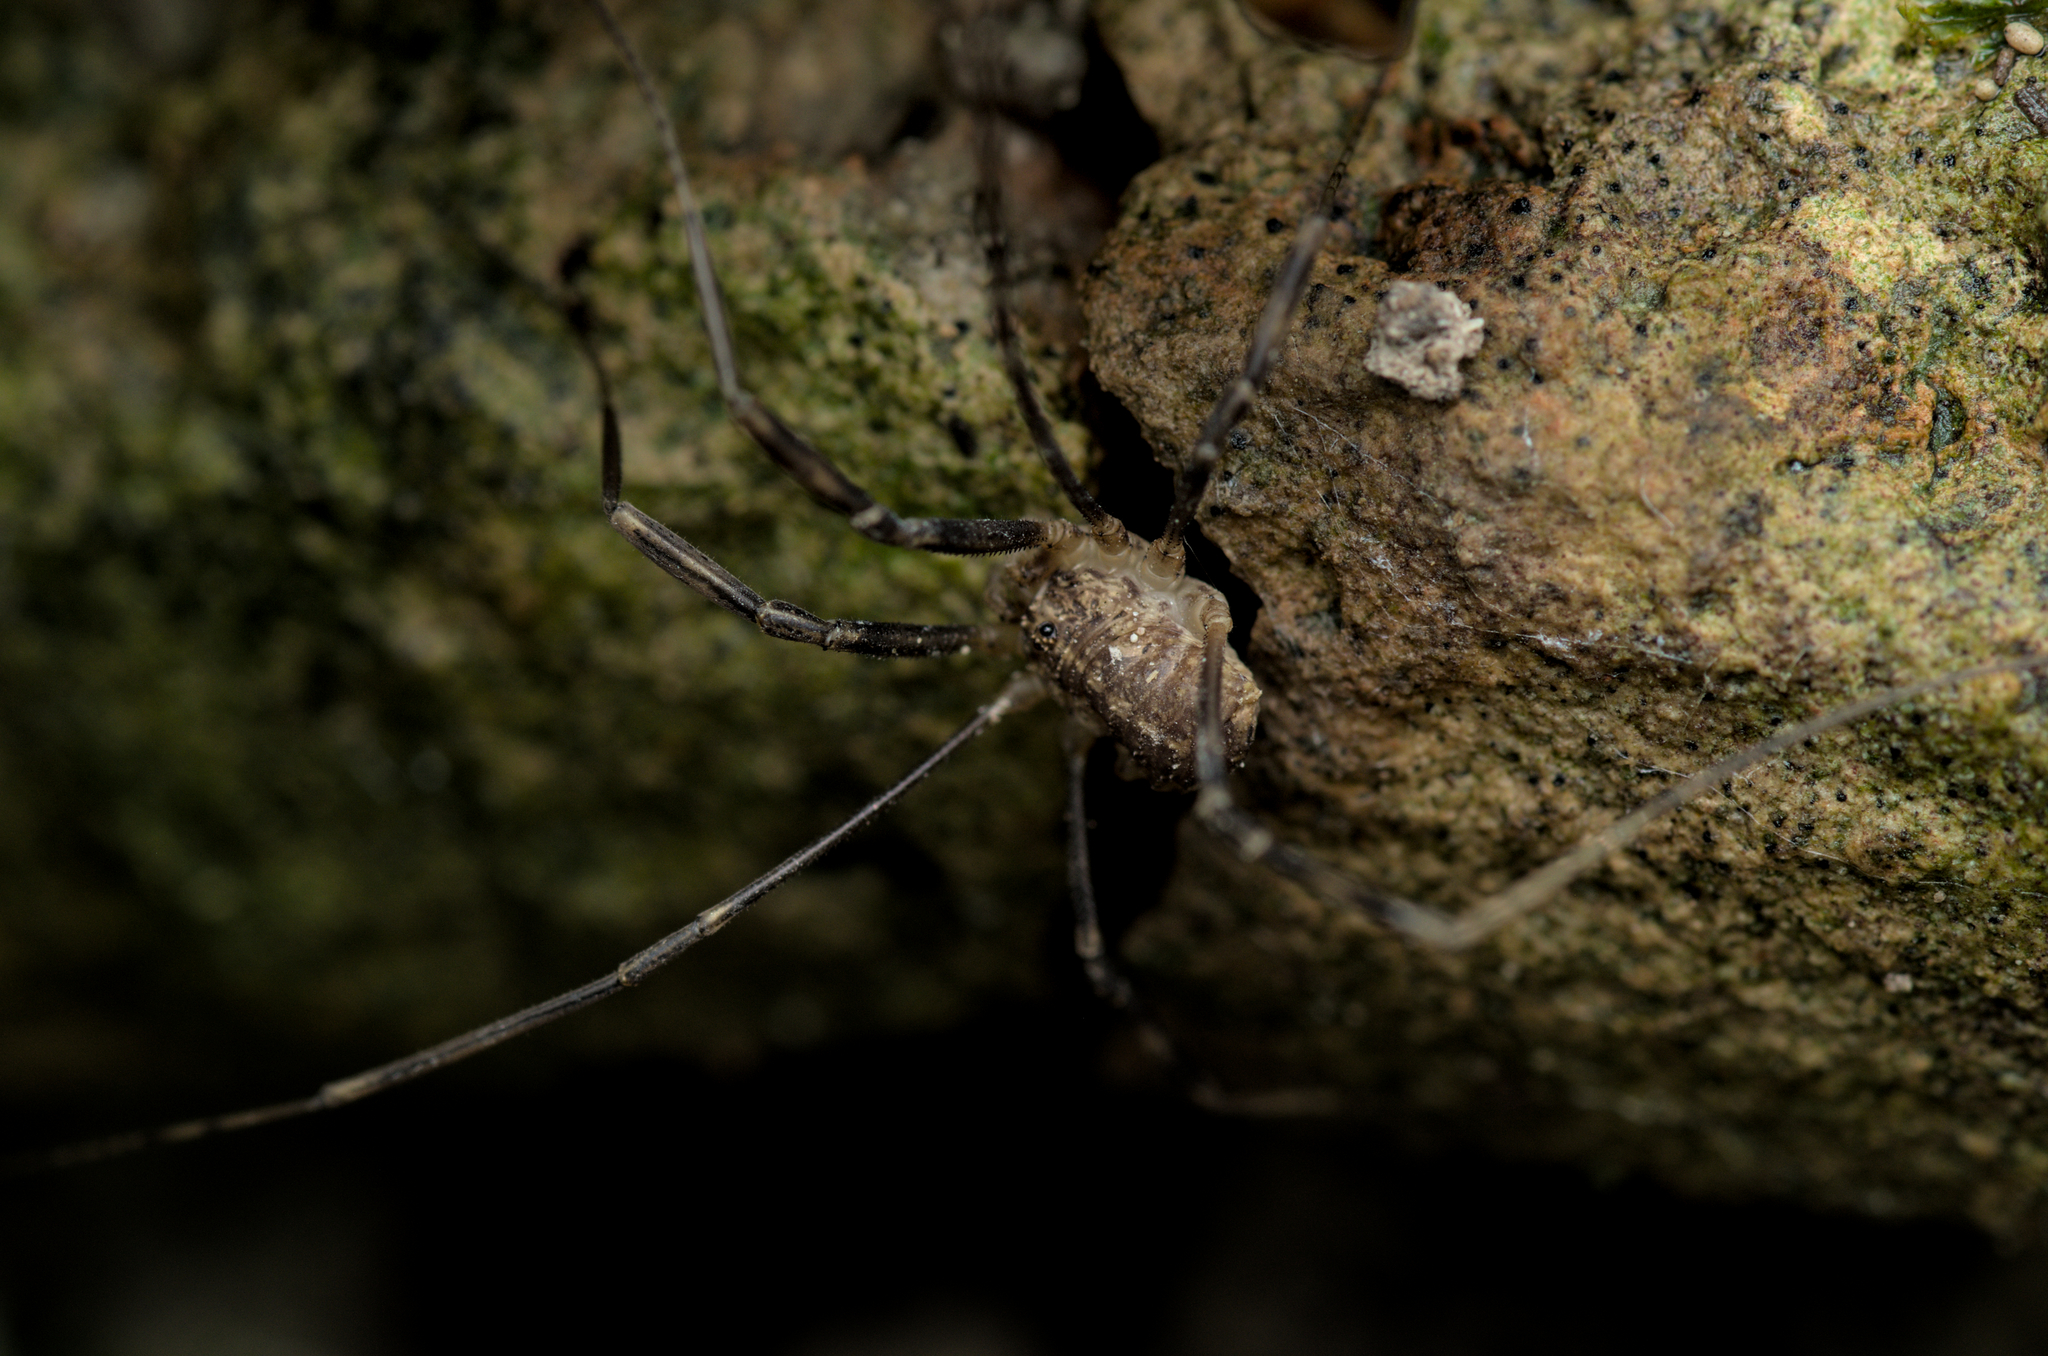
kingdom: Animalia
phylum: Arthropoda
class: Arachnida
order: Opiliones
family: Phalangiidae
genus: Opilio
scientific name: Opilio saxatilis
